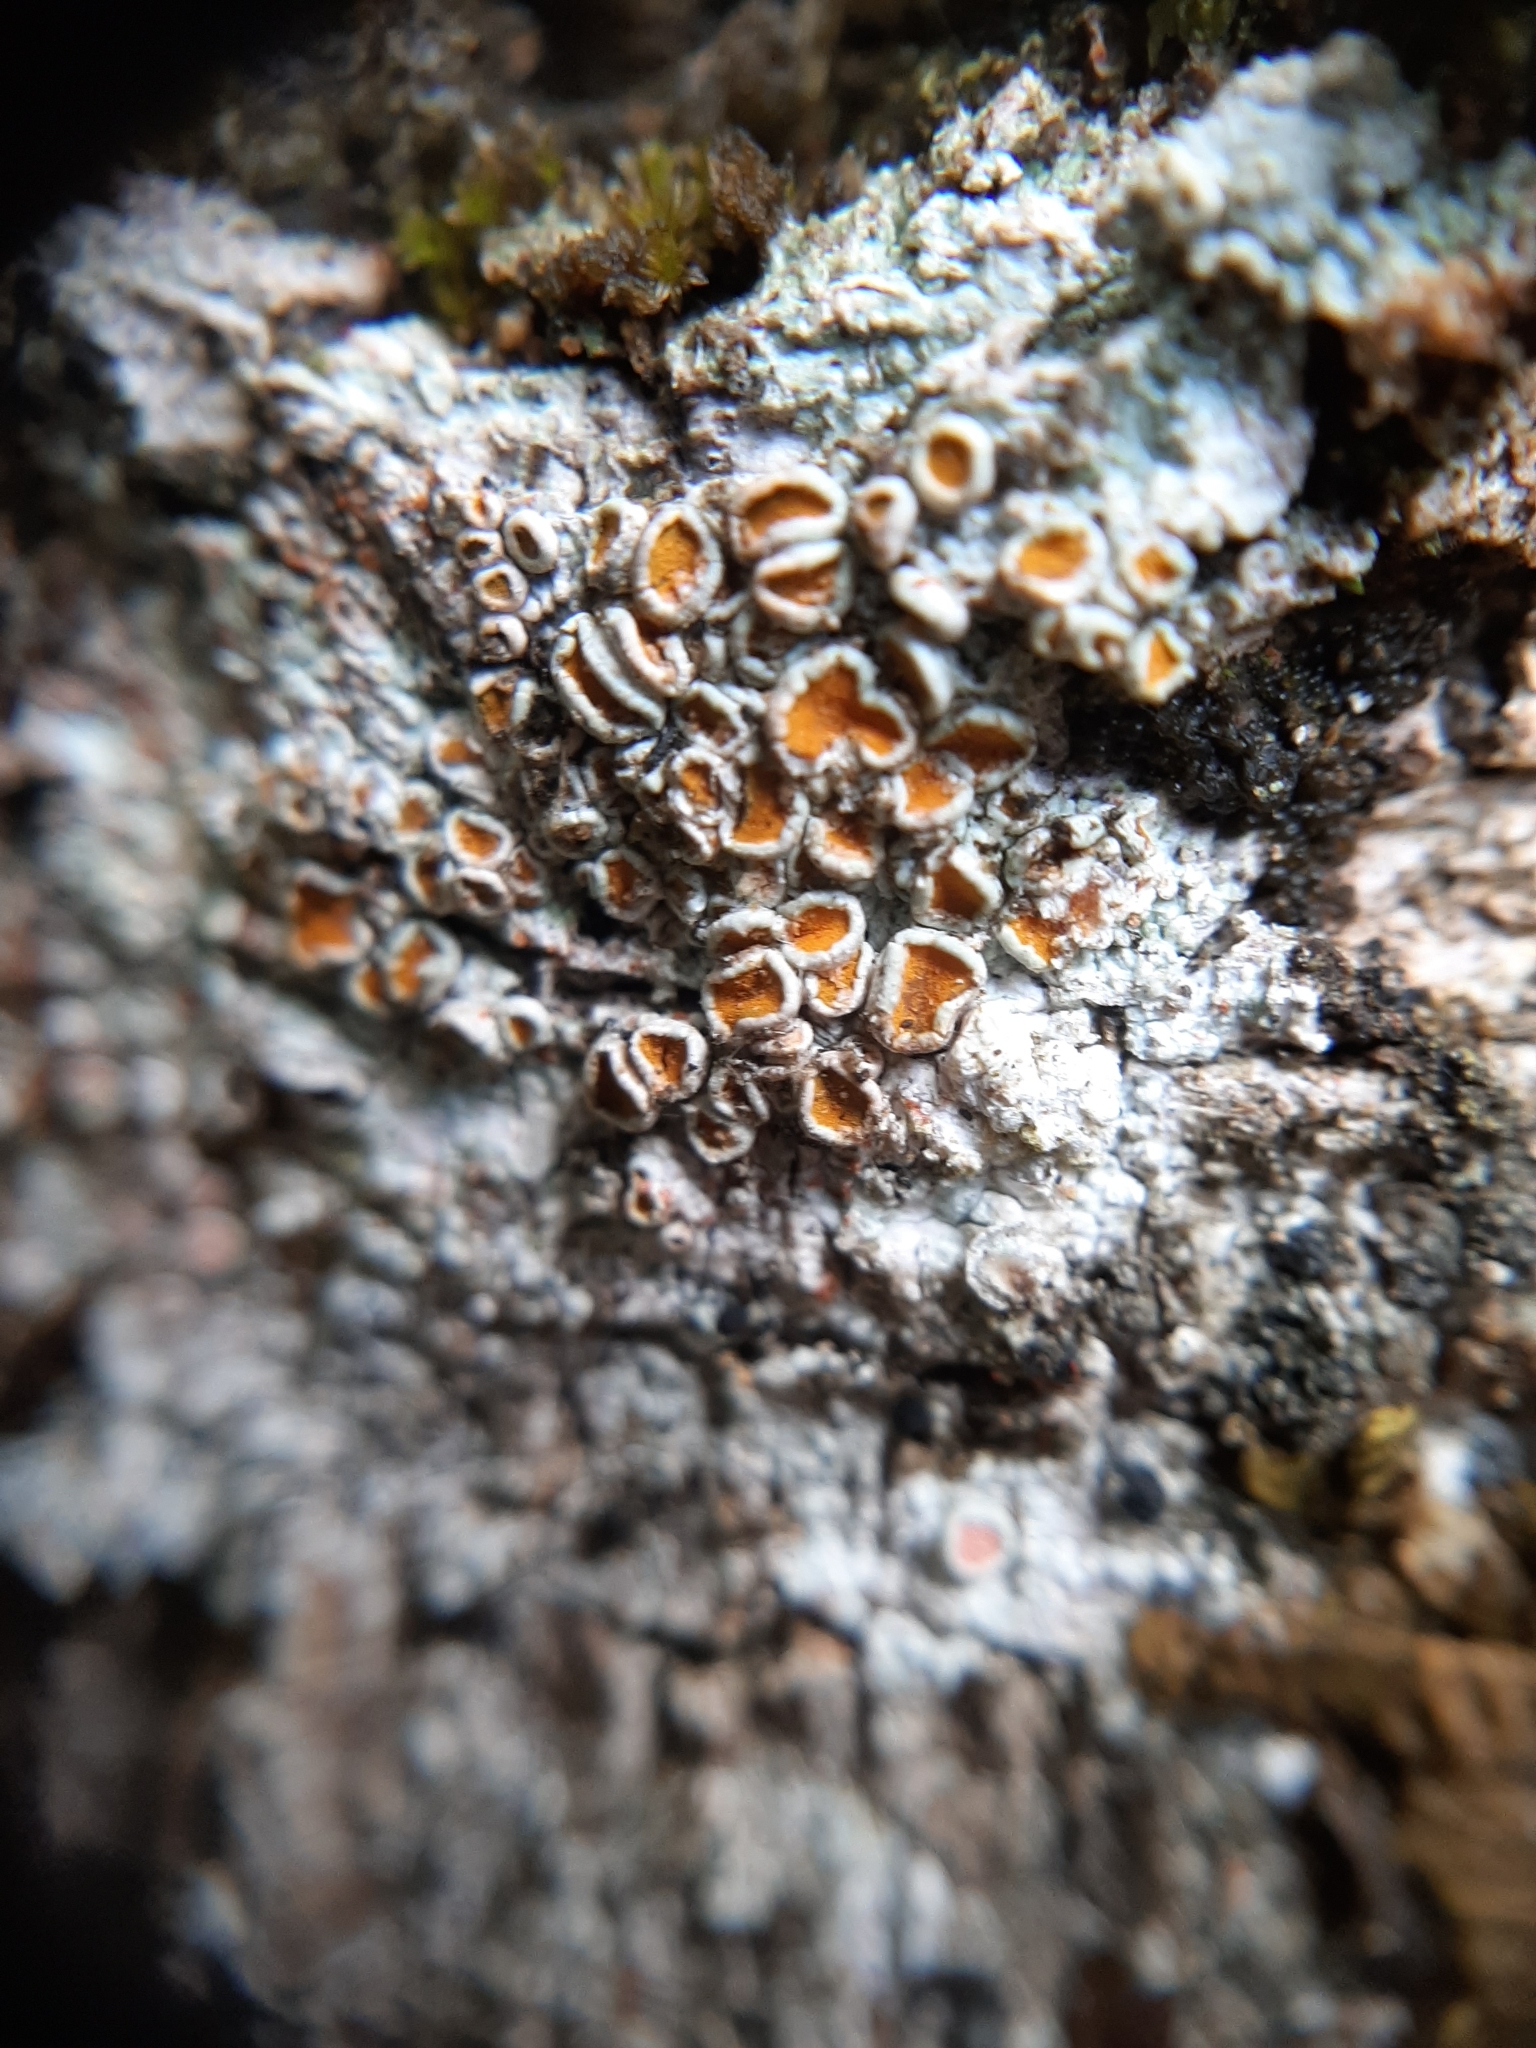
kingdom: Fungi
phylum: Ascomycota
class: Lecanoromycetes
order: Teloschistales
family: Brigantiaeaceae
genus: Brigantiaea
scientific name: Brigantiaea chrysosticta
